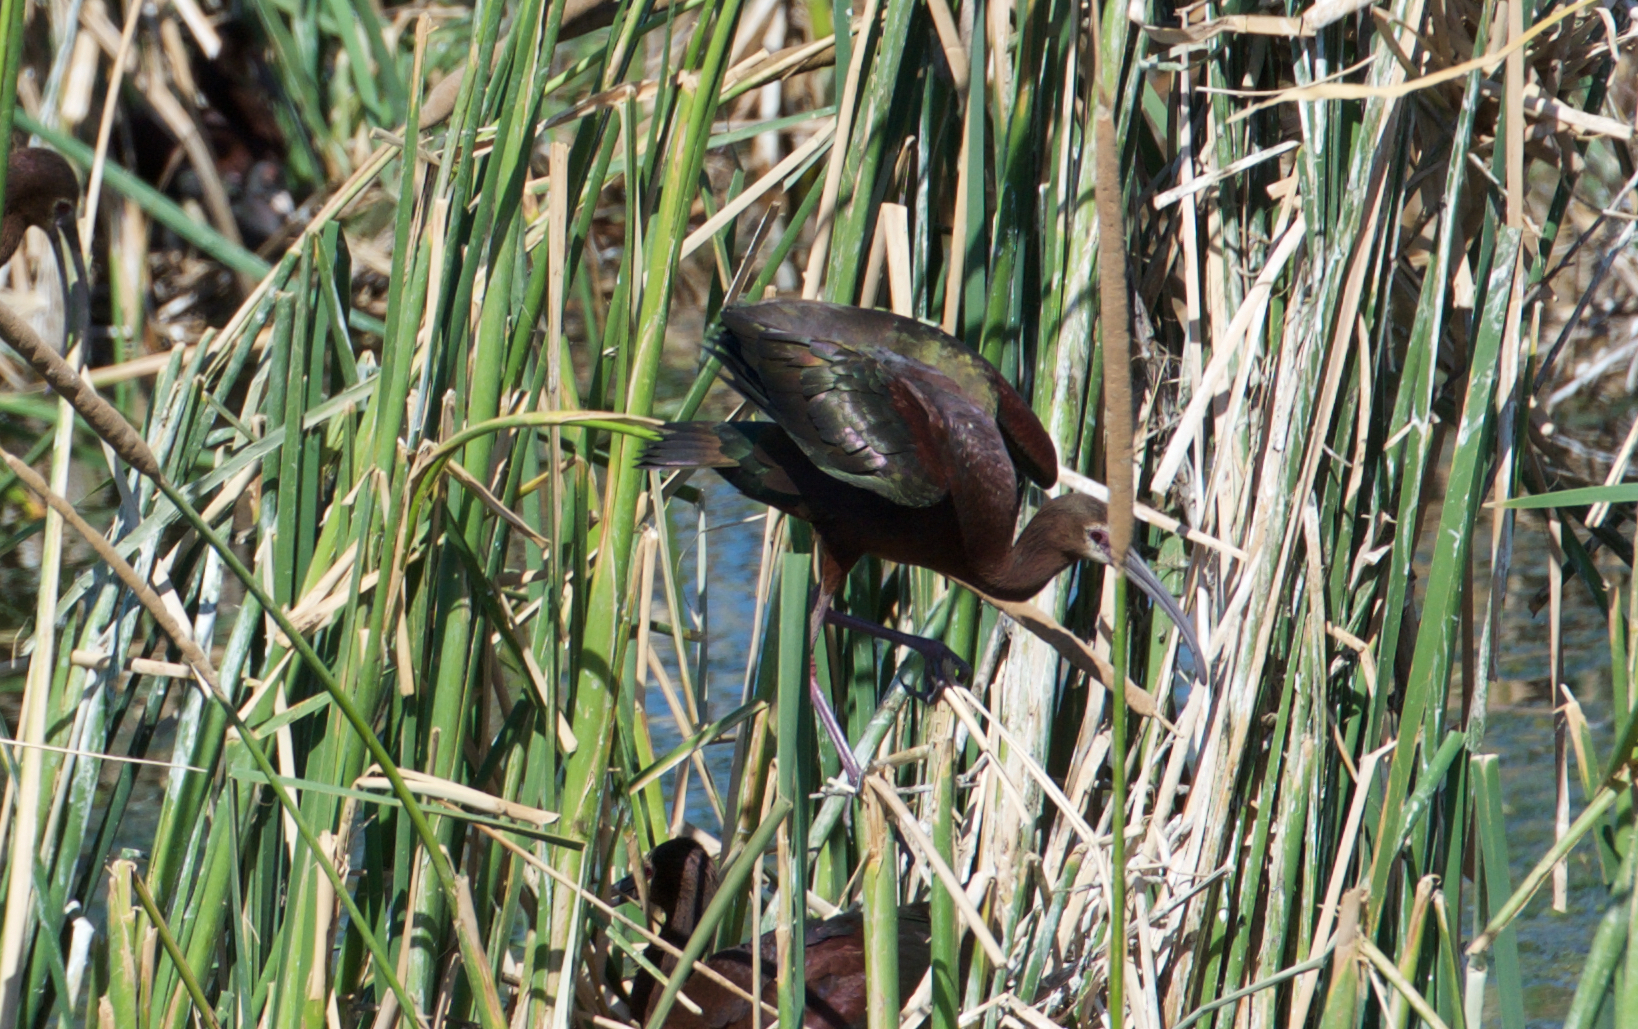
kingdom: Animalia
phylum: Chordata
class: Aves
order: Pelecaniformes
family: Threskiornithidae
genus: Plegadis
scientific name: Plegadis chihi
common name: White-faced ibis
